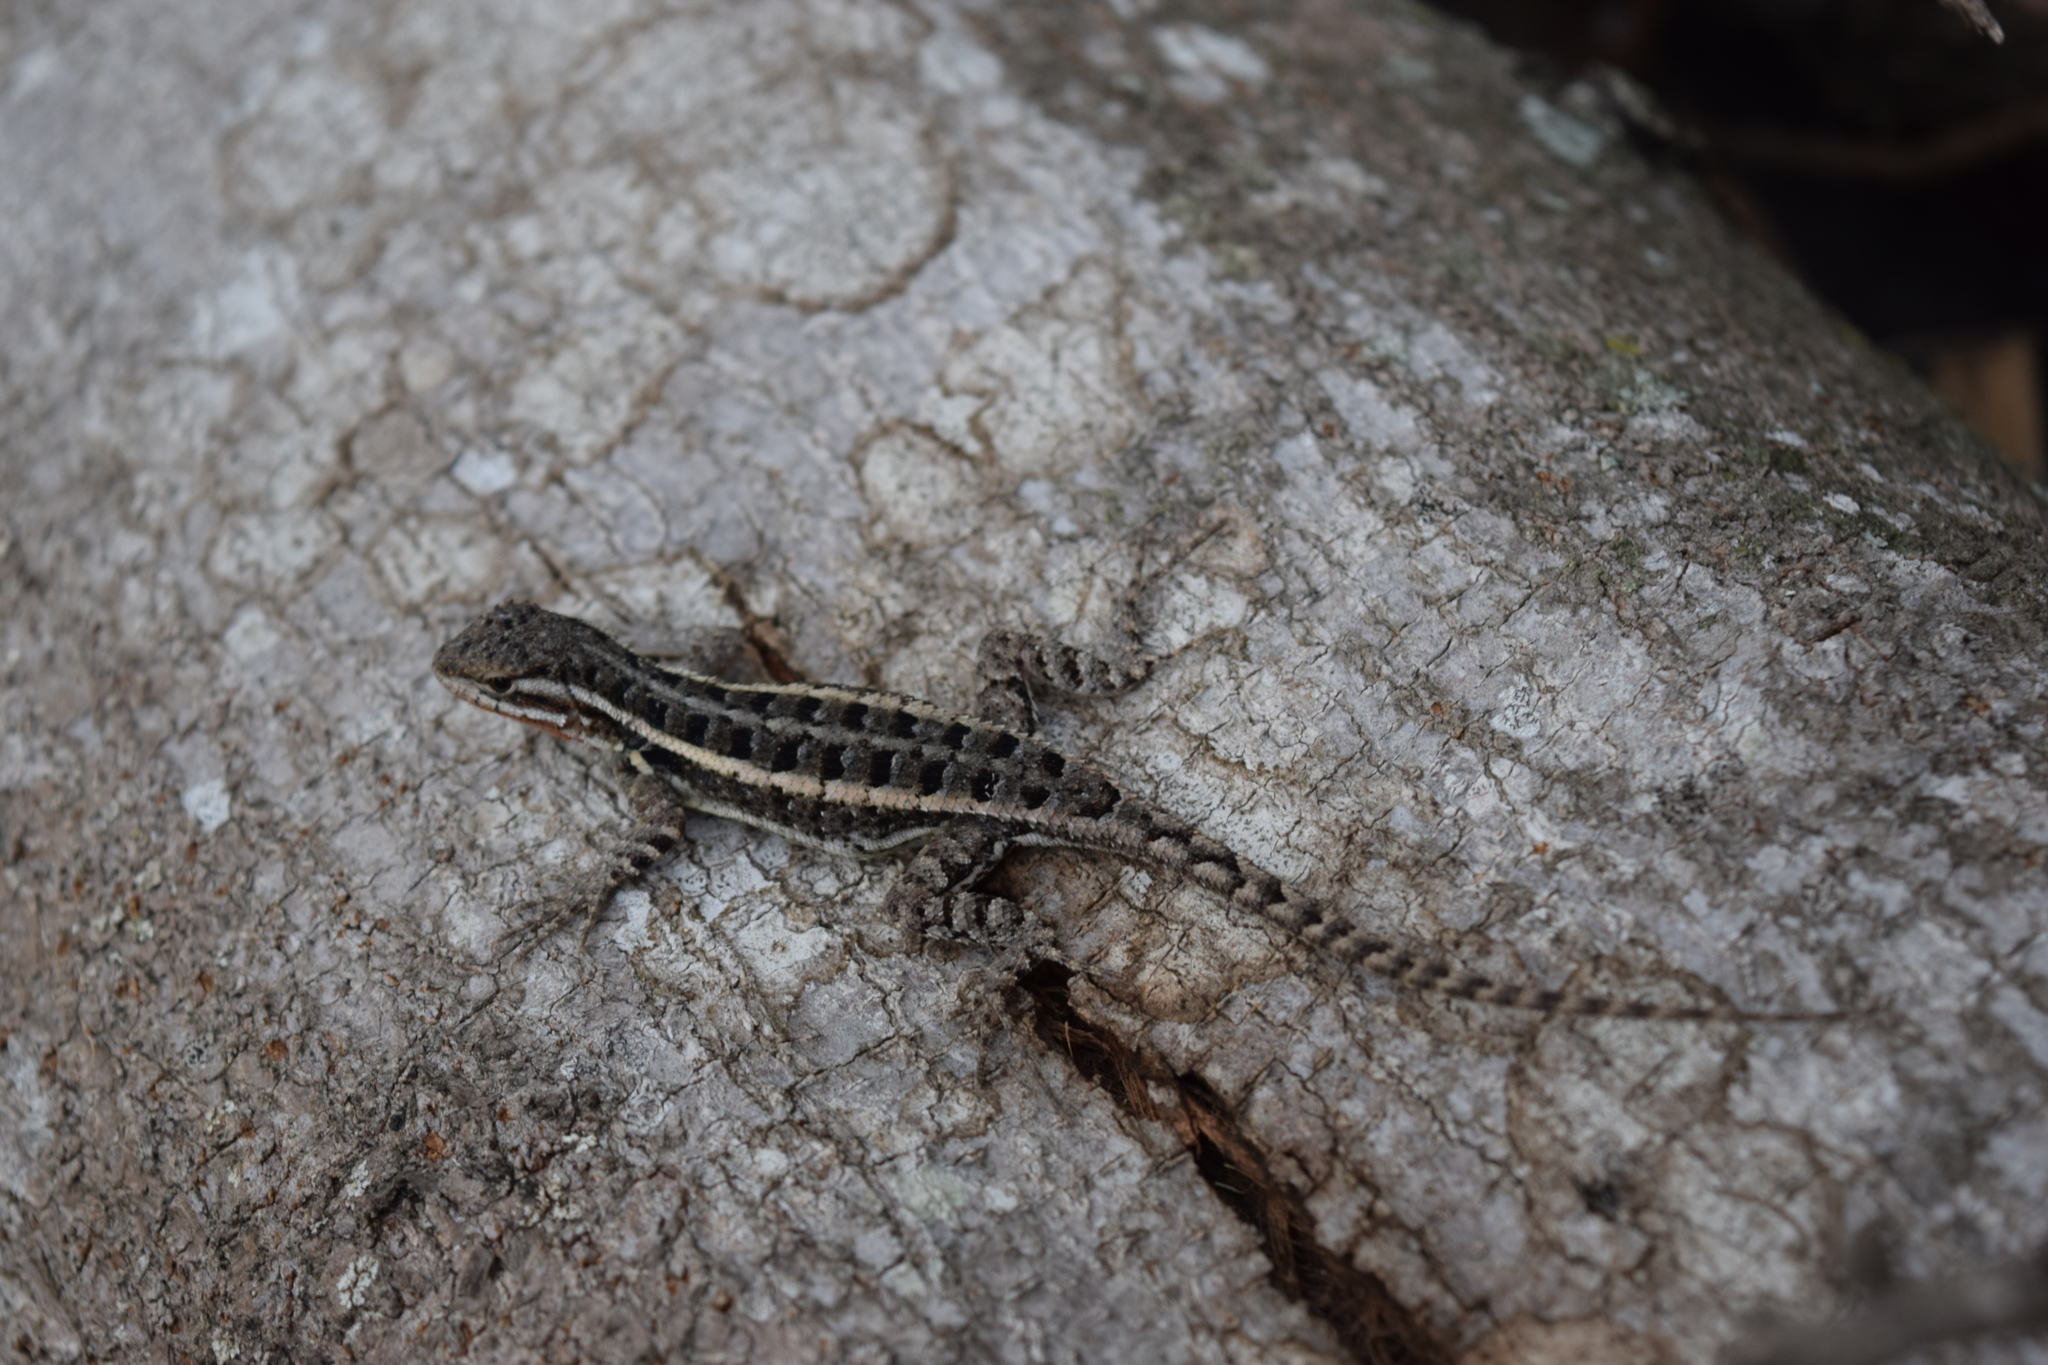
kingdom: Animalia
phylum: Chordata
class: Squamata
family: Phrynosomatidae
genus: Sceloporus
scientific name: Sceloporus variabilis
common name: Rosebelly lizard
